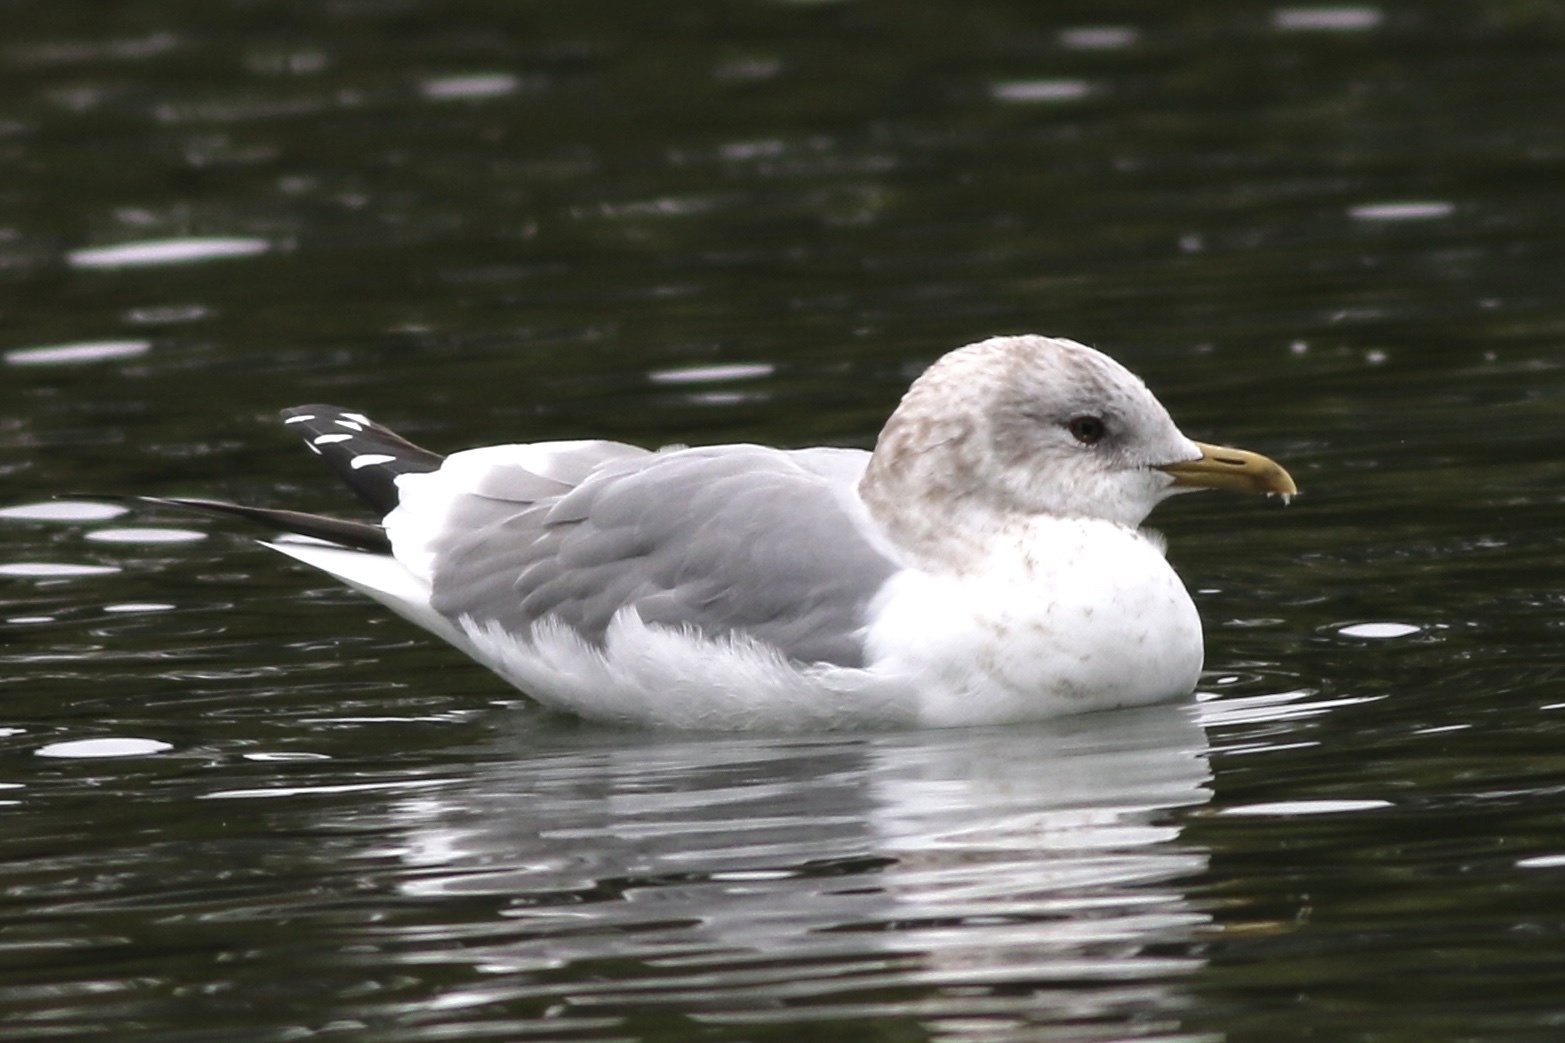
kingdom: Animalia
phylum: Chordata
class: Aves
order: Charadriiformes
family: Laridae
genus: Larus
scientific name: Larus brachyrhynchus
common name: Short-billed gull
